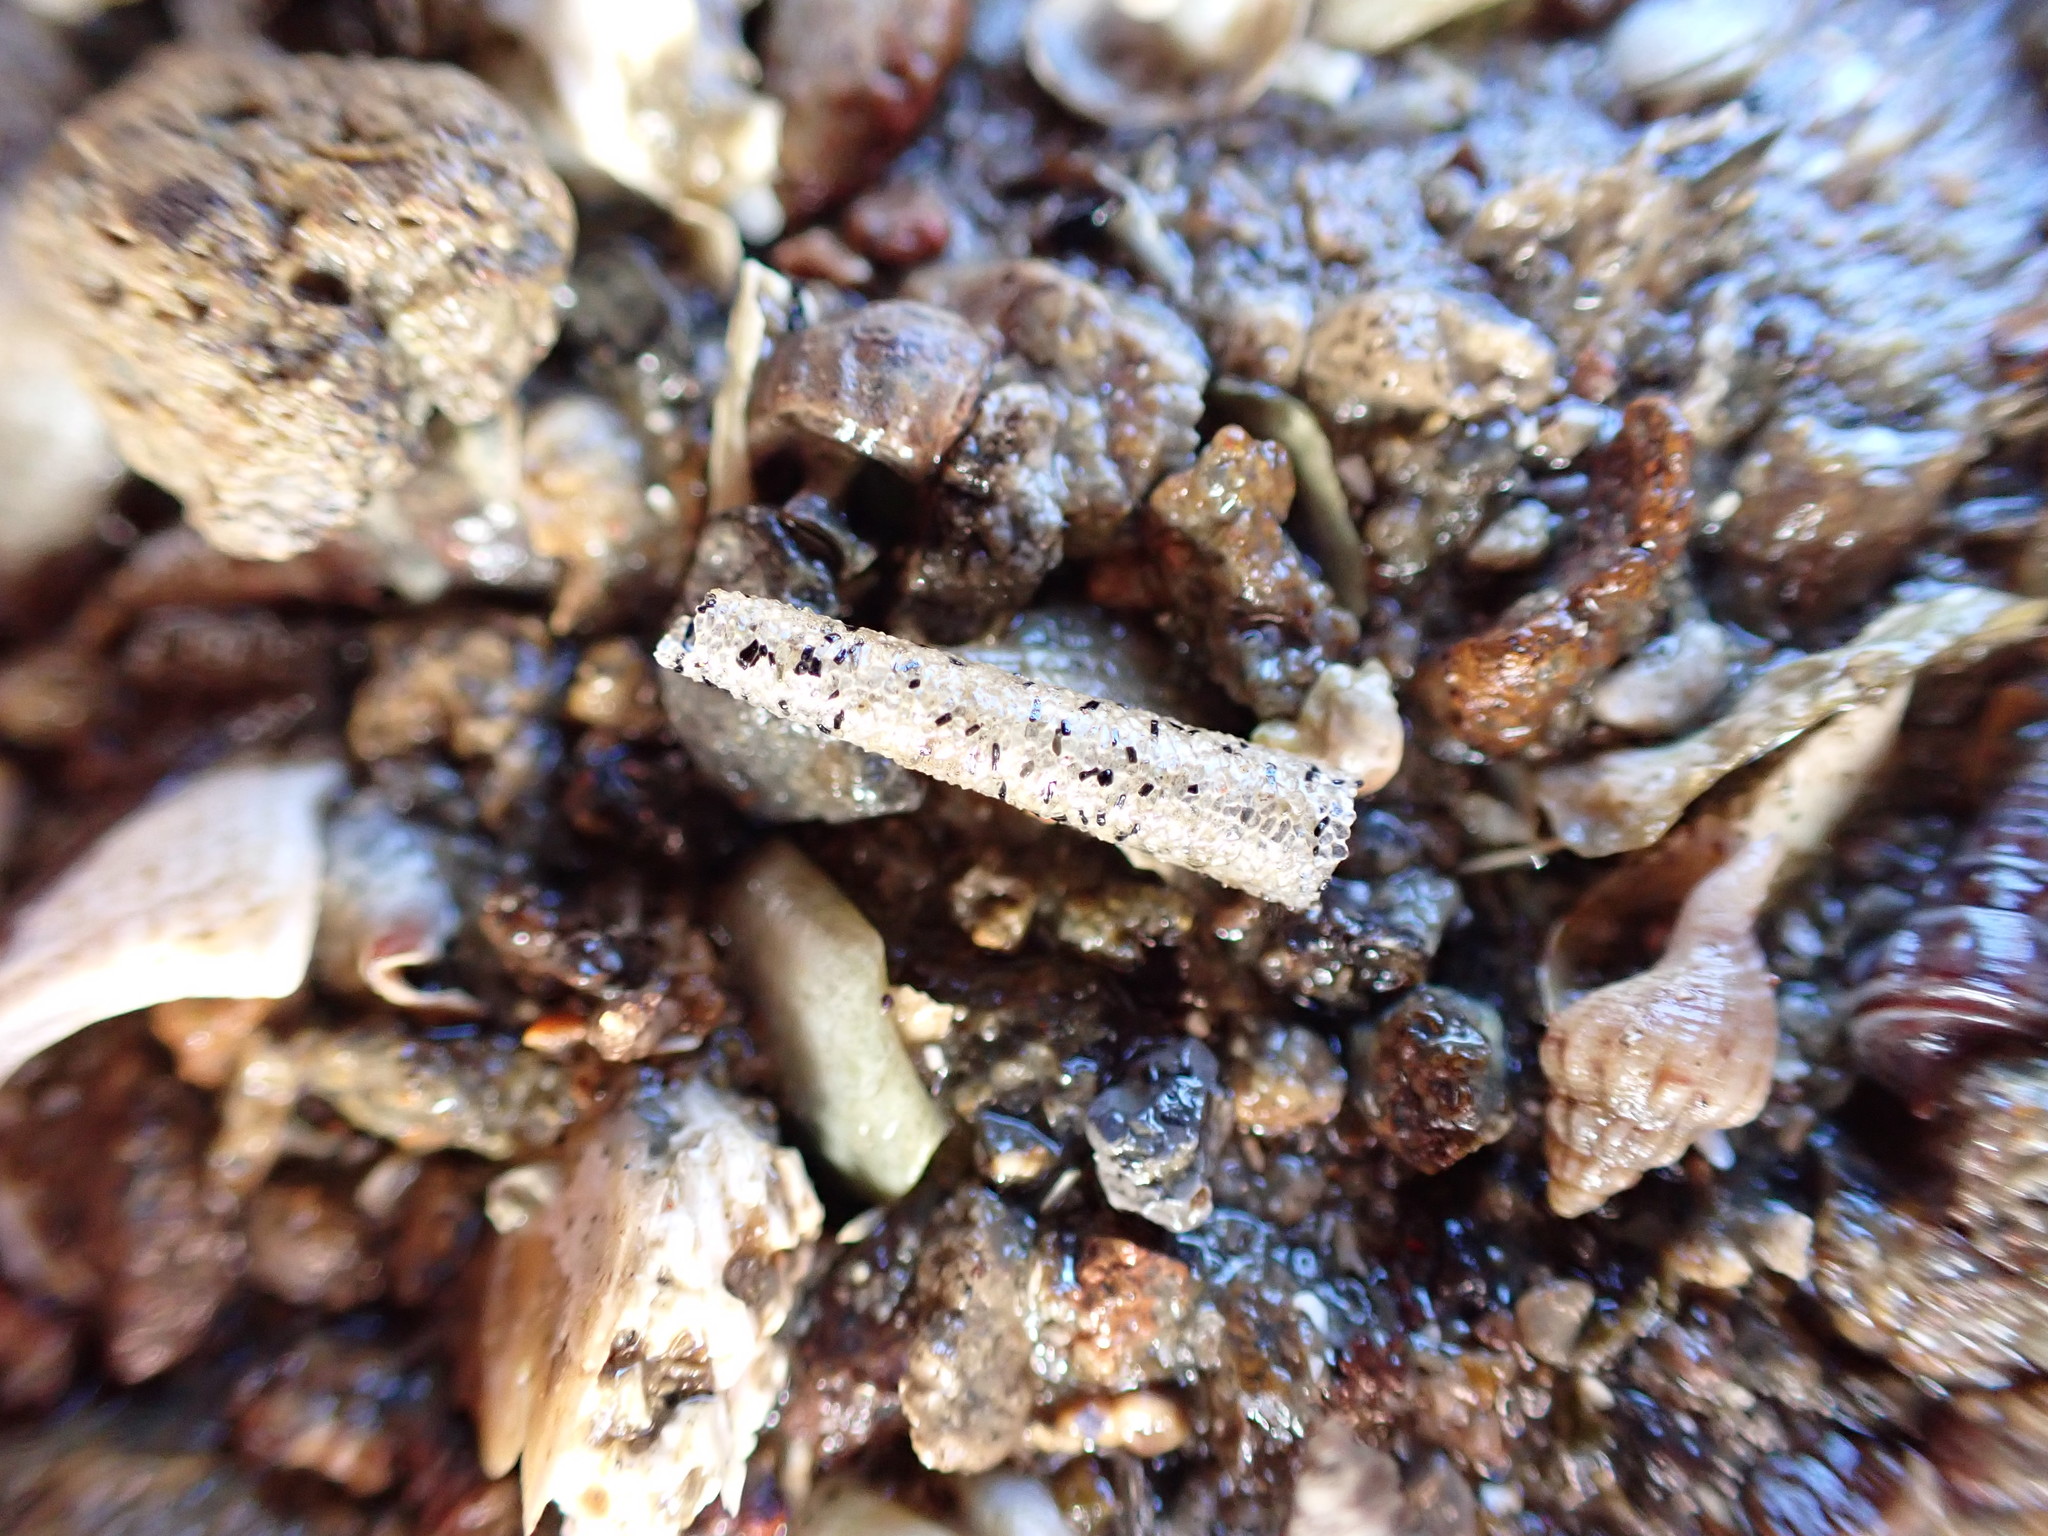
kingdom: Animalia
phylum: Annelida
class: Polychaeta
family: Pectinariidae
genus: Lagis
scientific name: Lagis australis
